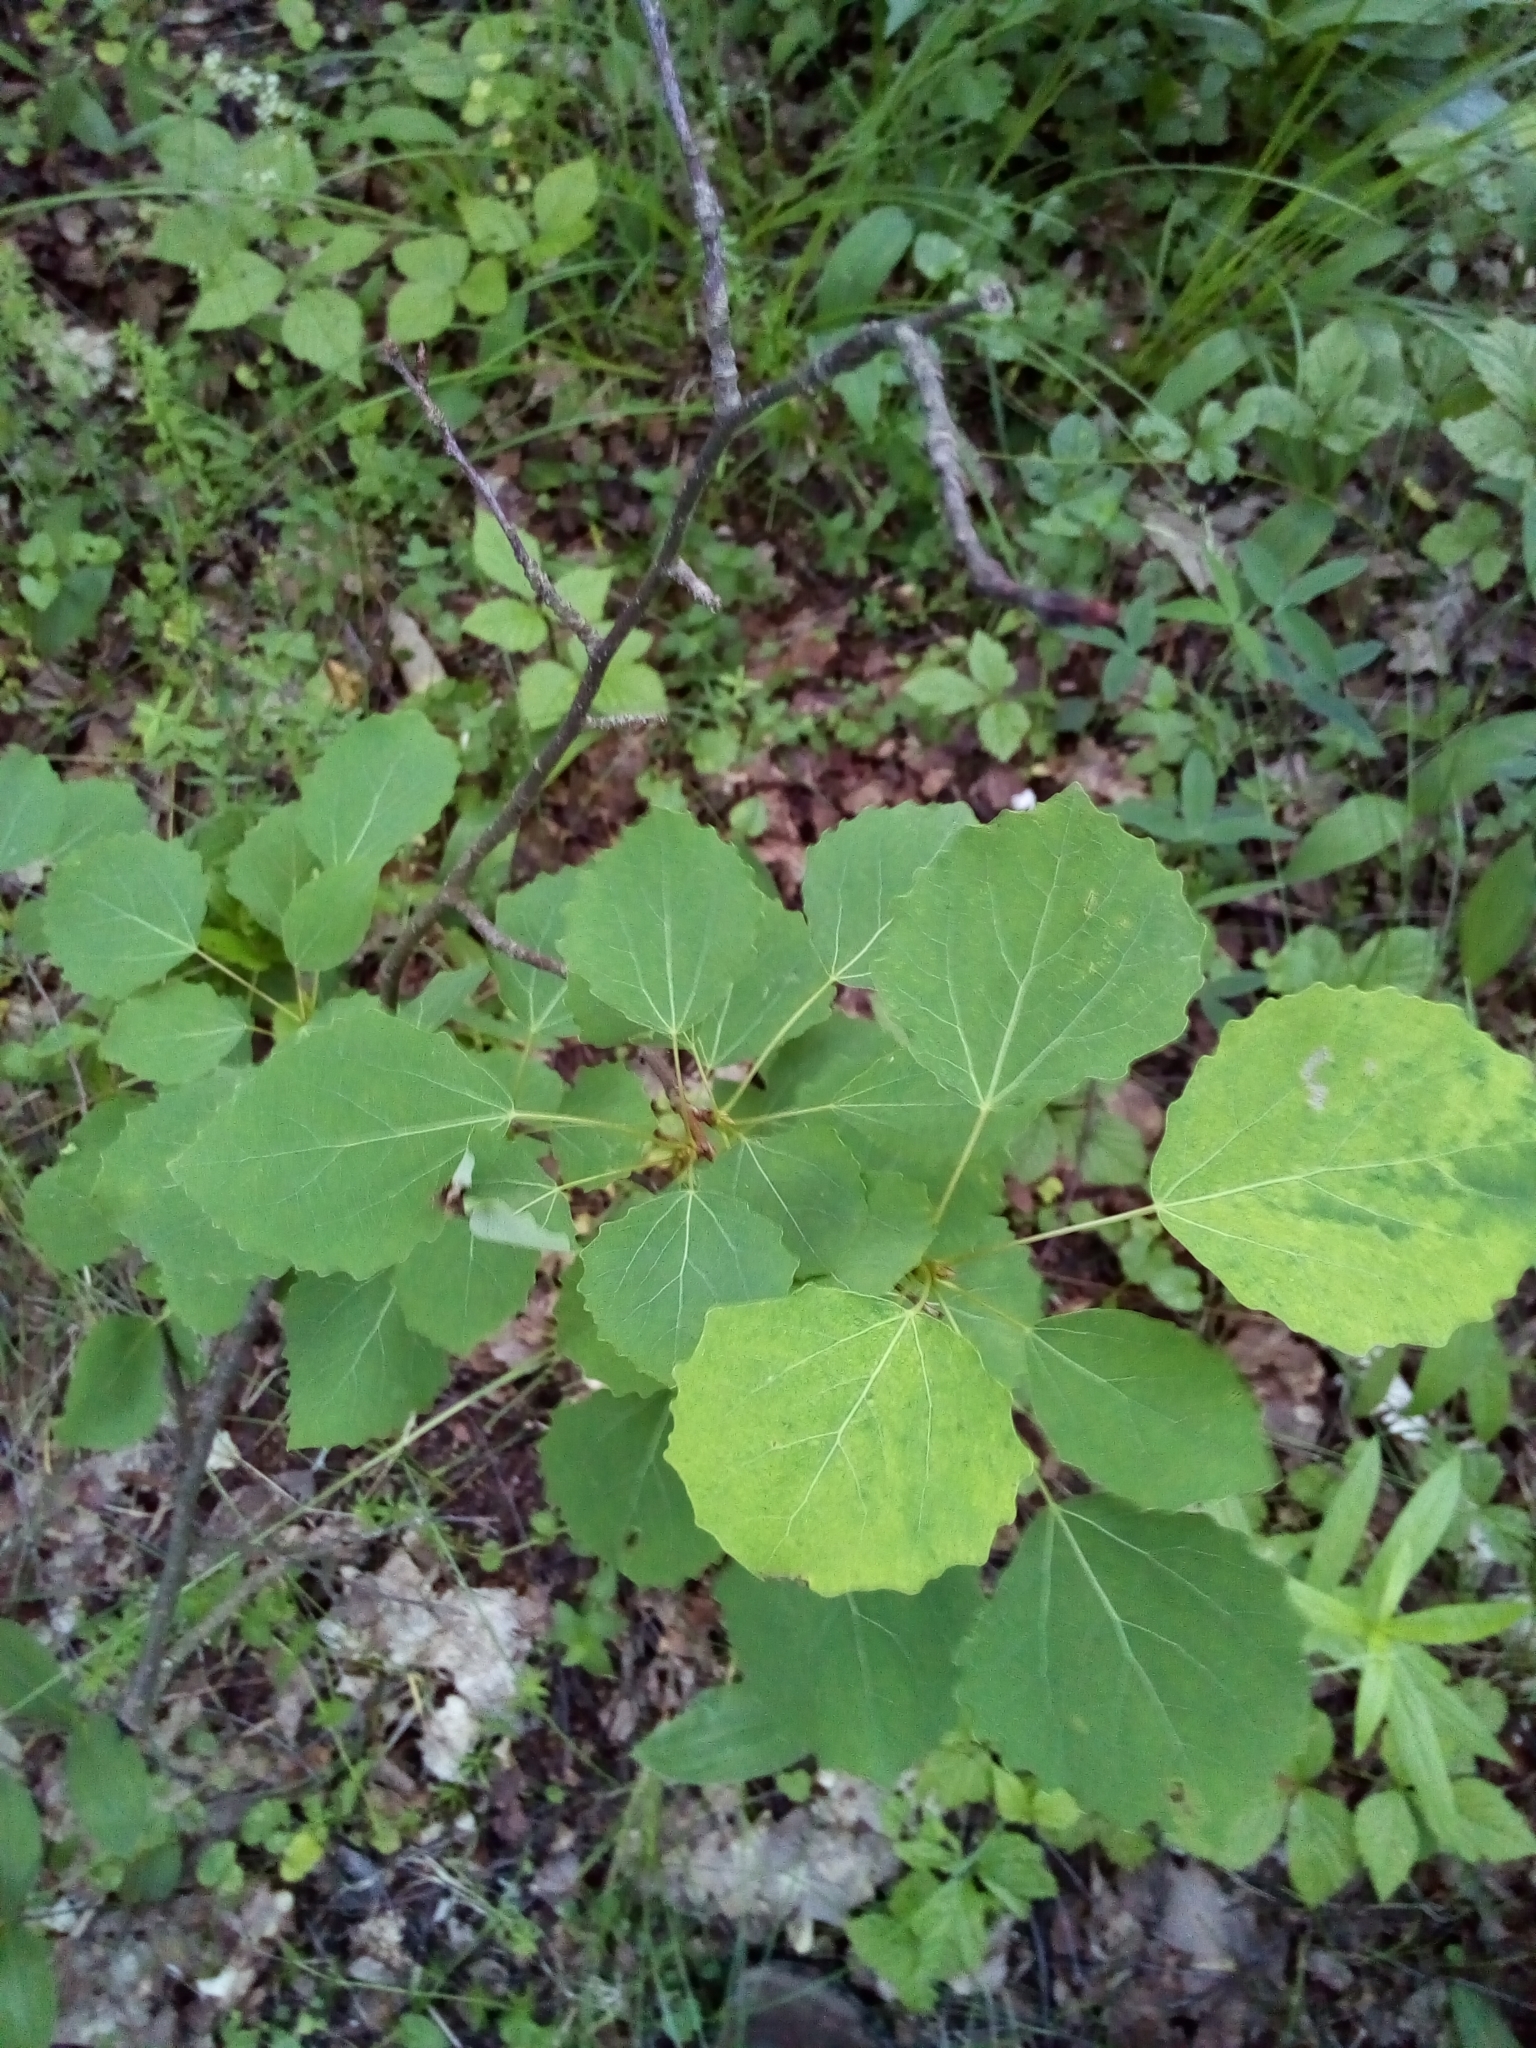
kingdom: Plantae
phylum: Tracheophyta
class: Magnoliopsida
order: Malpighiales
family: Salicaceae
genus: Populus
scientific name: Populus tremula
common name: European aspen
